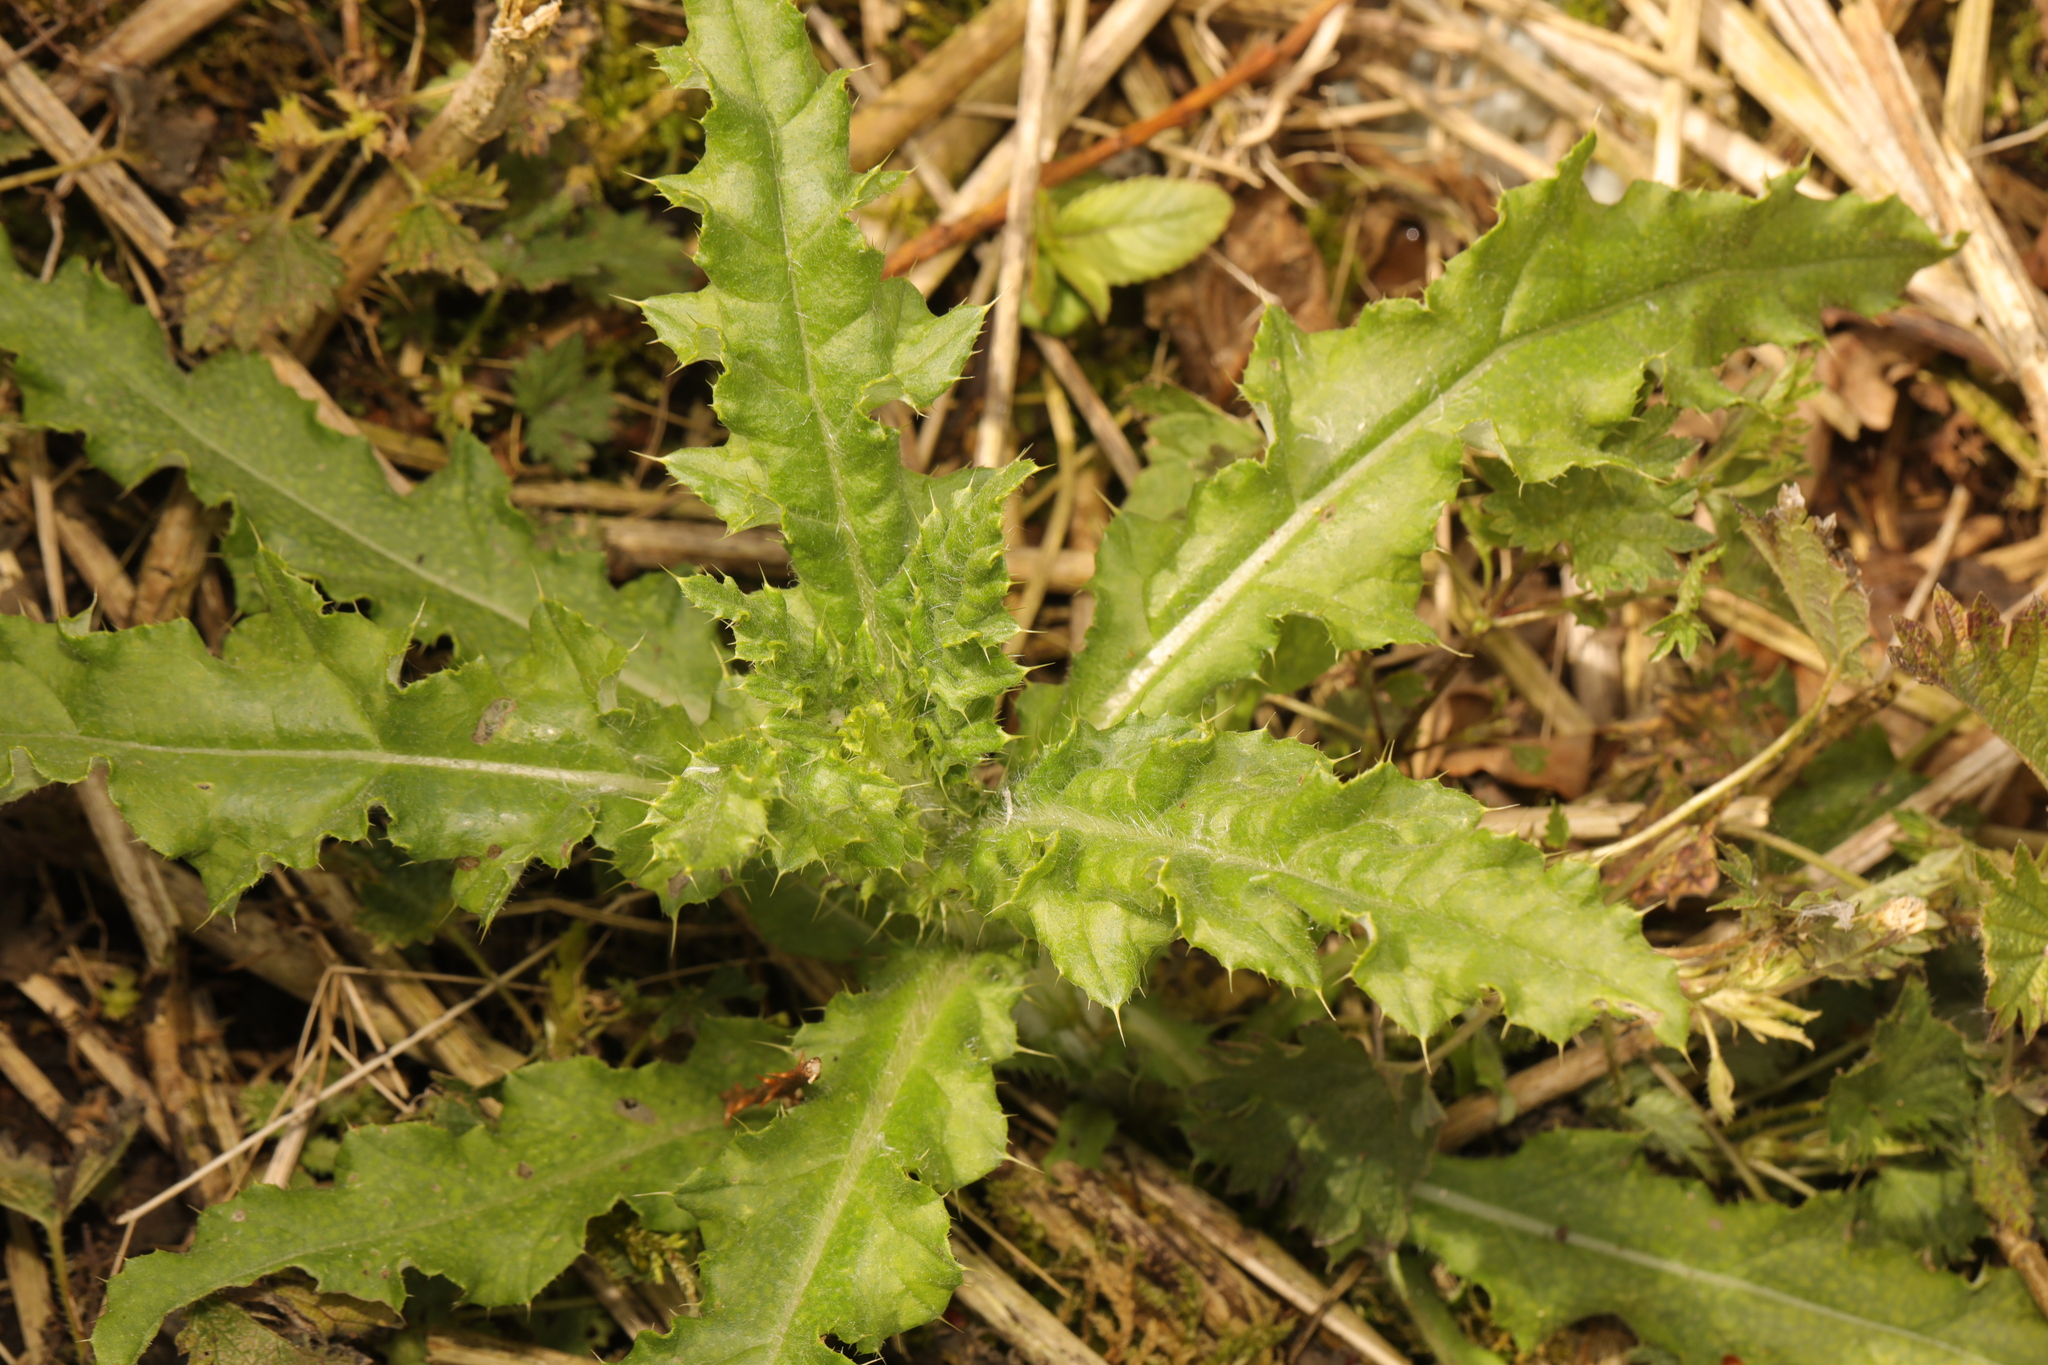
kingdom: Plantae
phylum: Tracheophyta
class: Magnoliopsida
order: Asterales
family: Asteraceae
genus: Cirsium
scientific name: Cirsium arvense
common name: Creeping thistle
